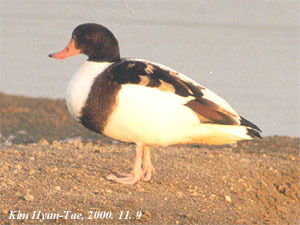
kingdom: Animalia
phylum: Chordata
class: Aves
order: Anseriformes
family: Anatidae
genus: Tadorna
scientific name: Tadorna tadorna
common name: Common shelduck
